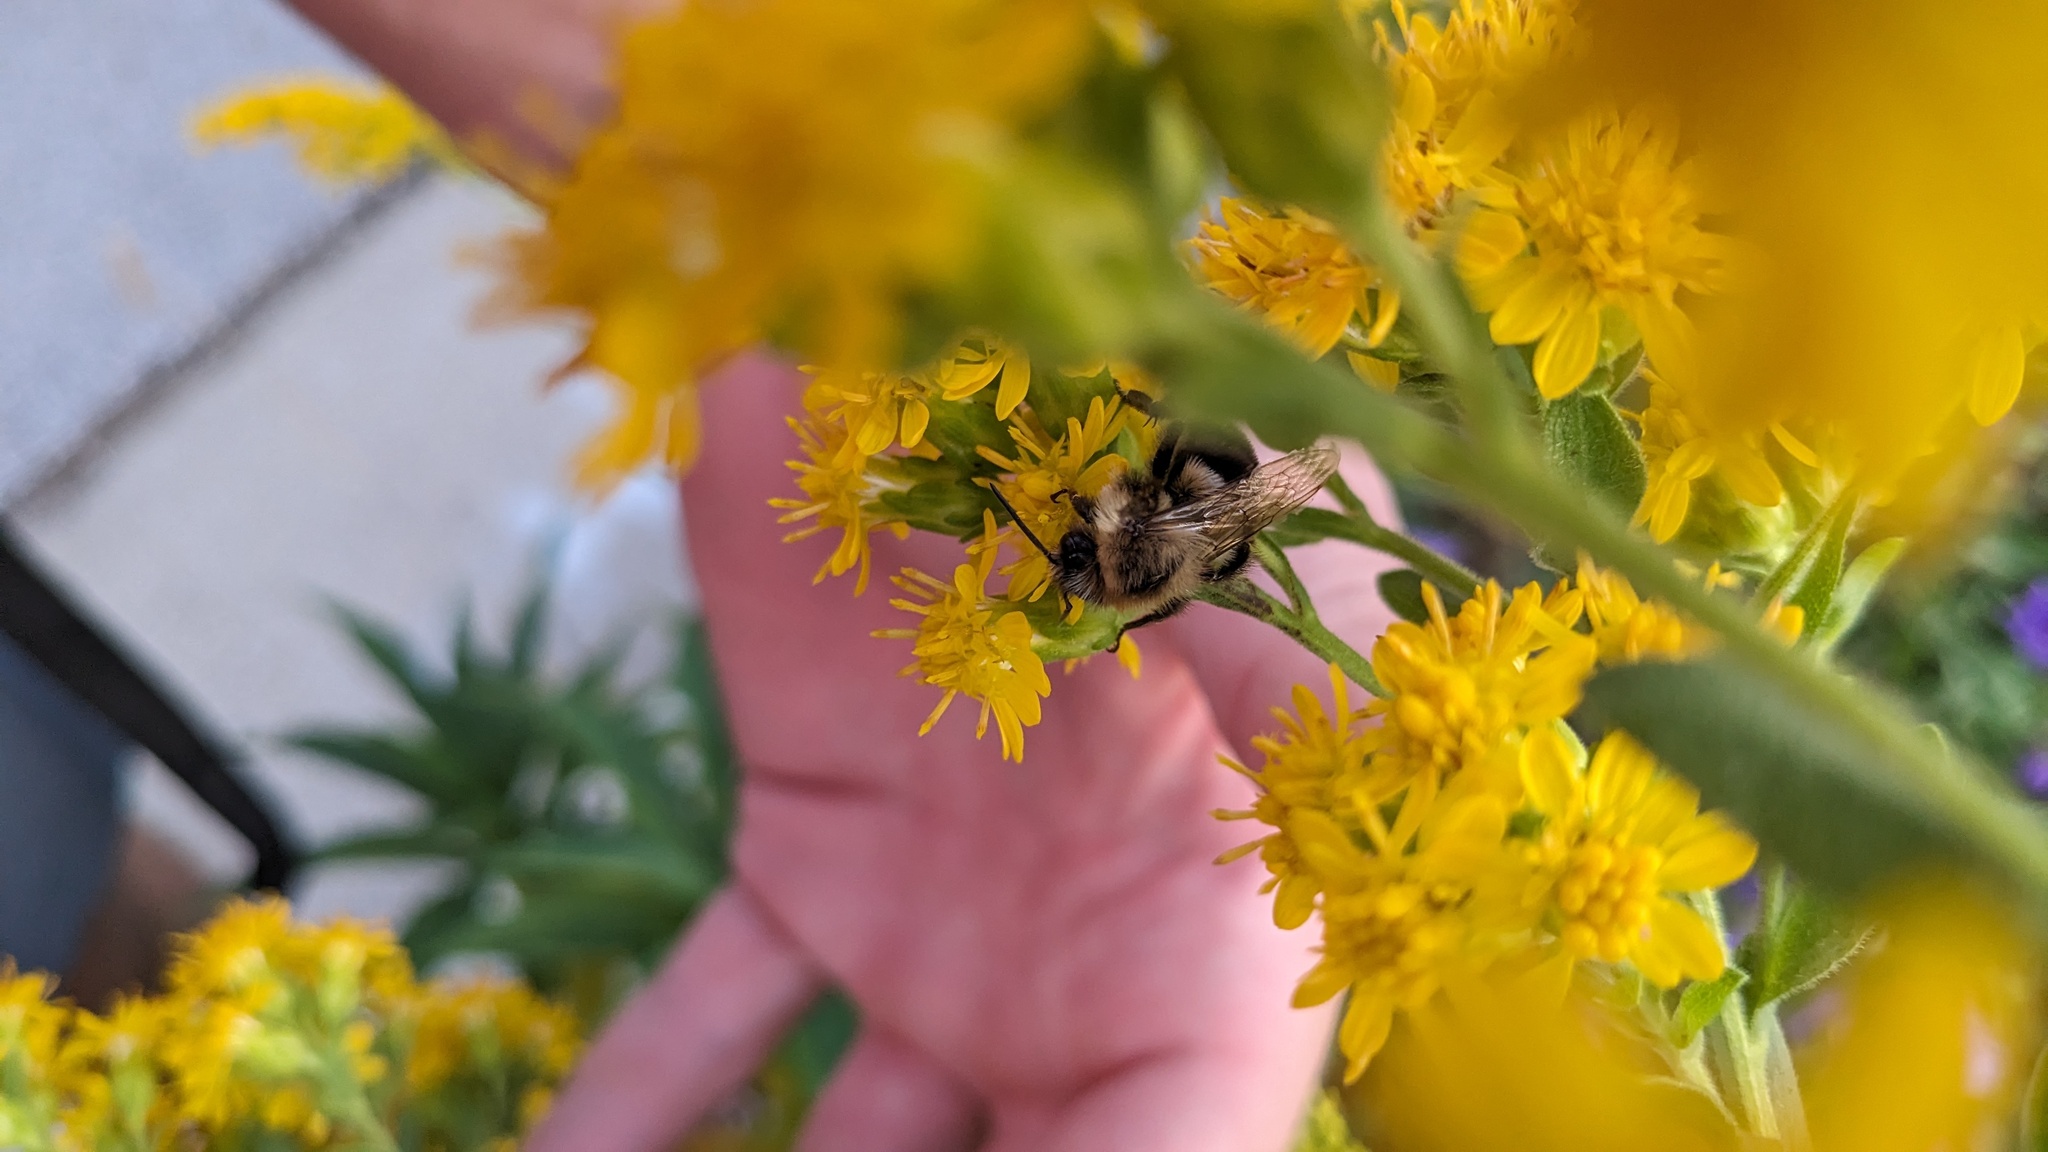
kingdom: Animalia
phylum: Arthropoda
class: Insecta
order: Hymenoptera
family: Apidae
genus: Bombus
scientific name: Bombus impatiens
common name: Common eastern bumble bee
